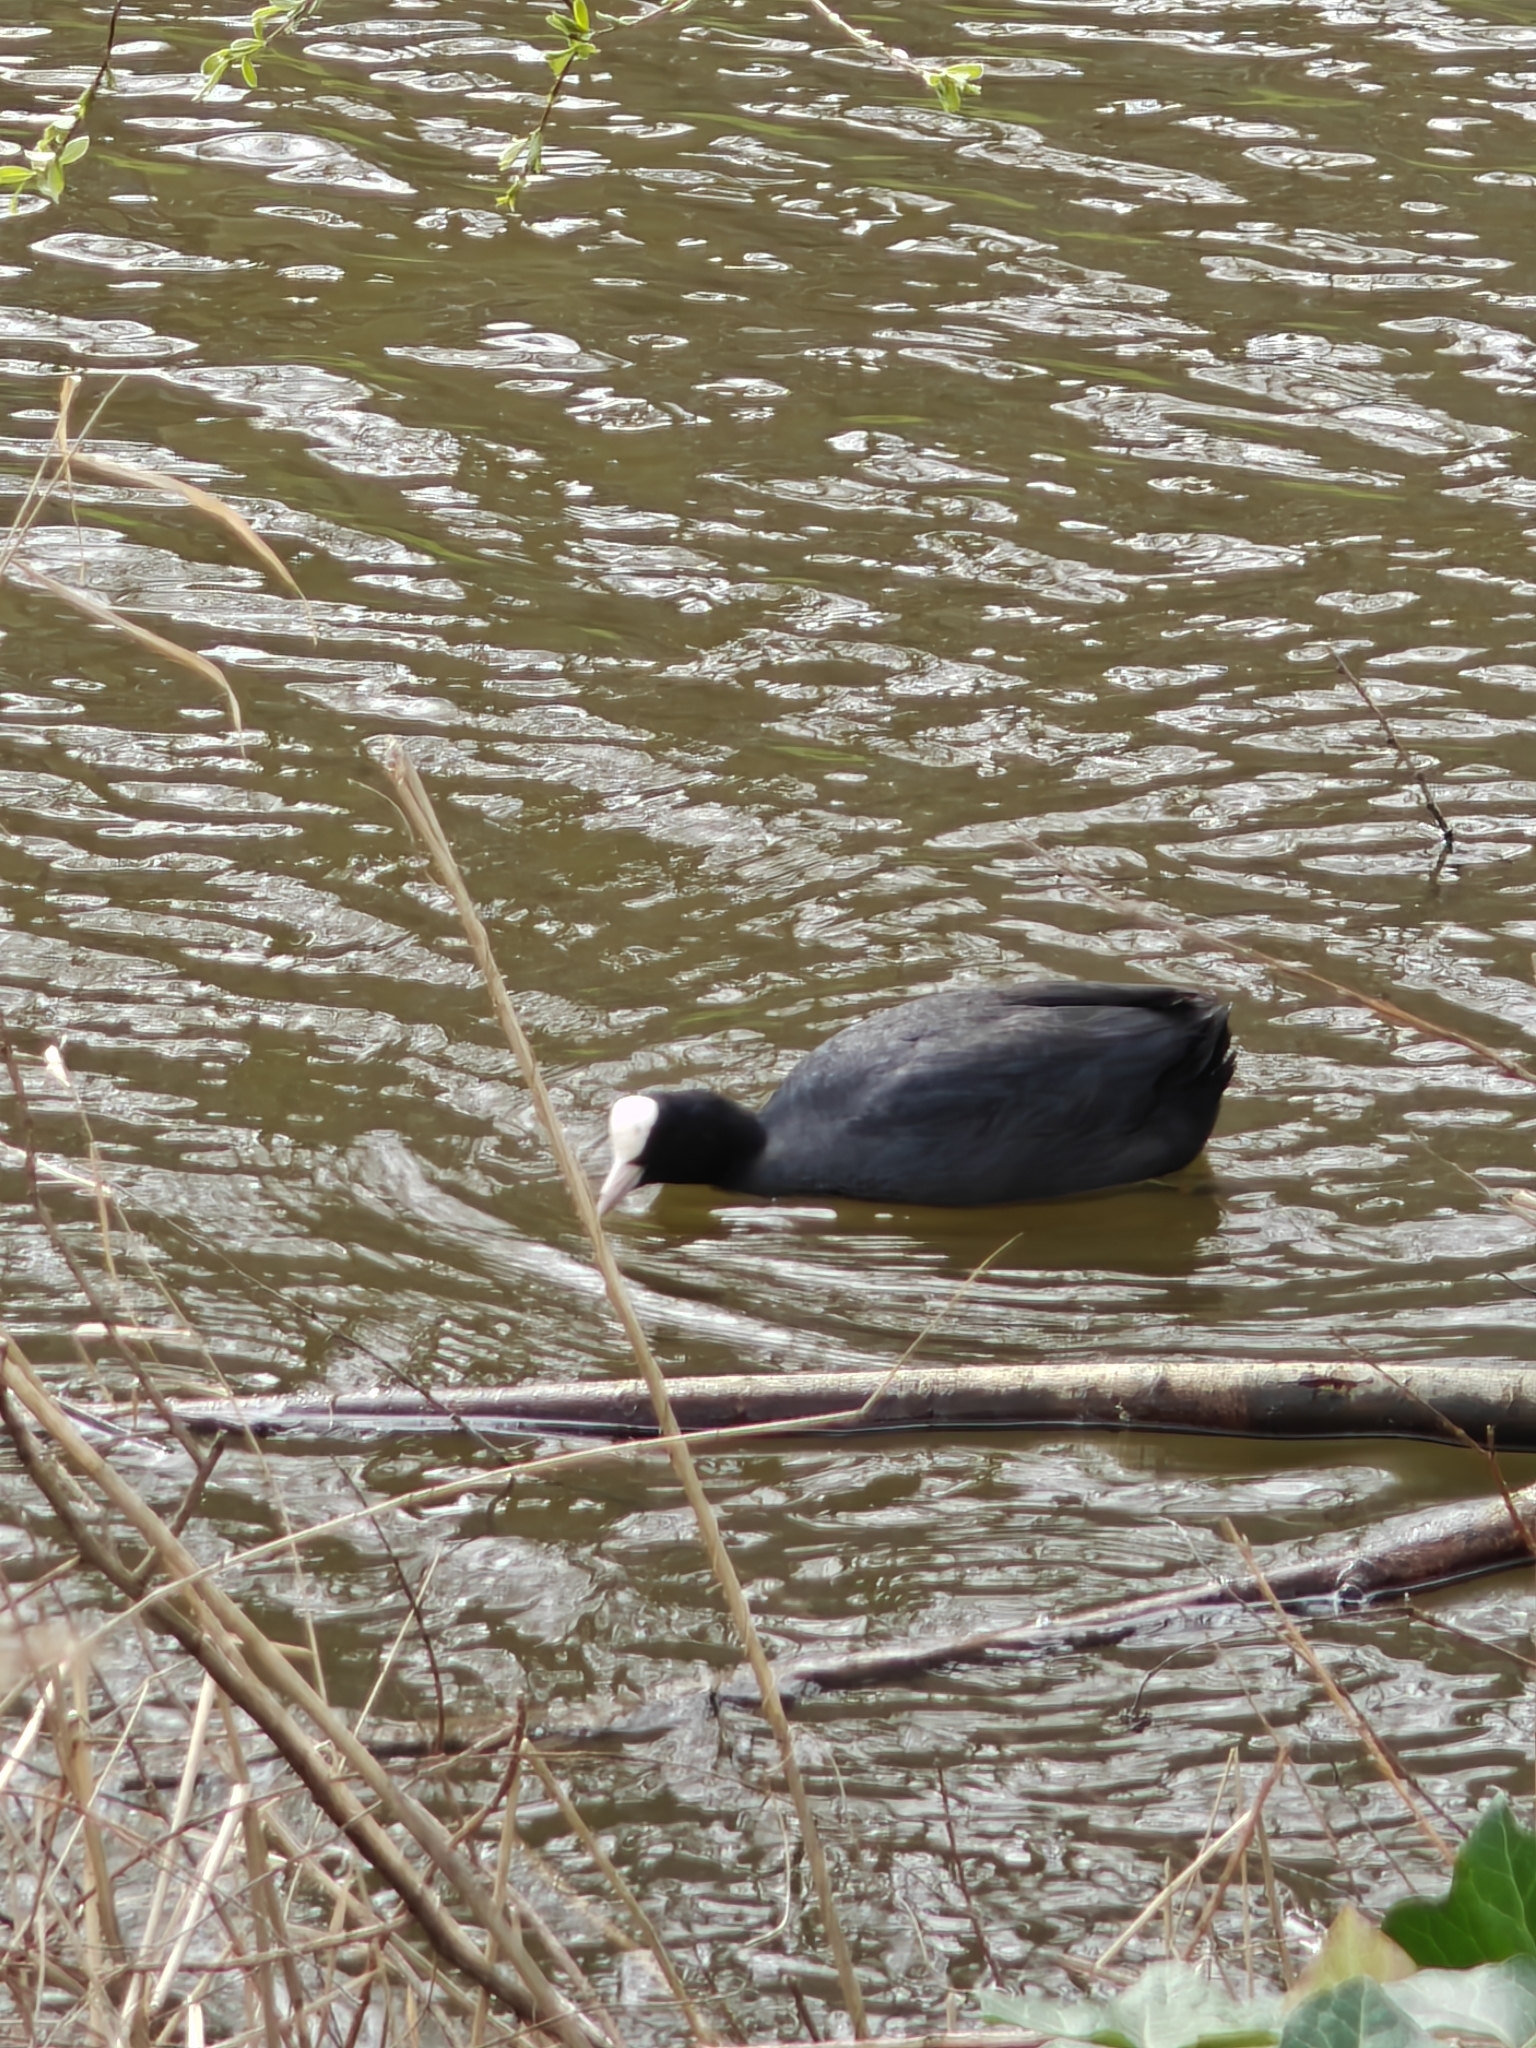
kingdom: Animalia
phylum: Chordata
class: Aves
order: Gruiformes
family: Rallidae
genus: Fulica
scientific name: Fulica atra
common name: Eurasian coot
